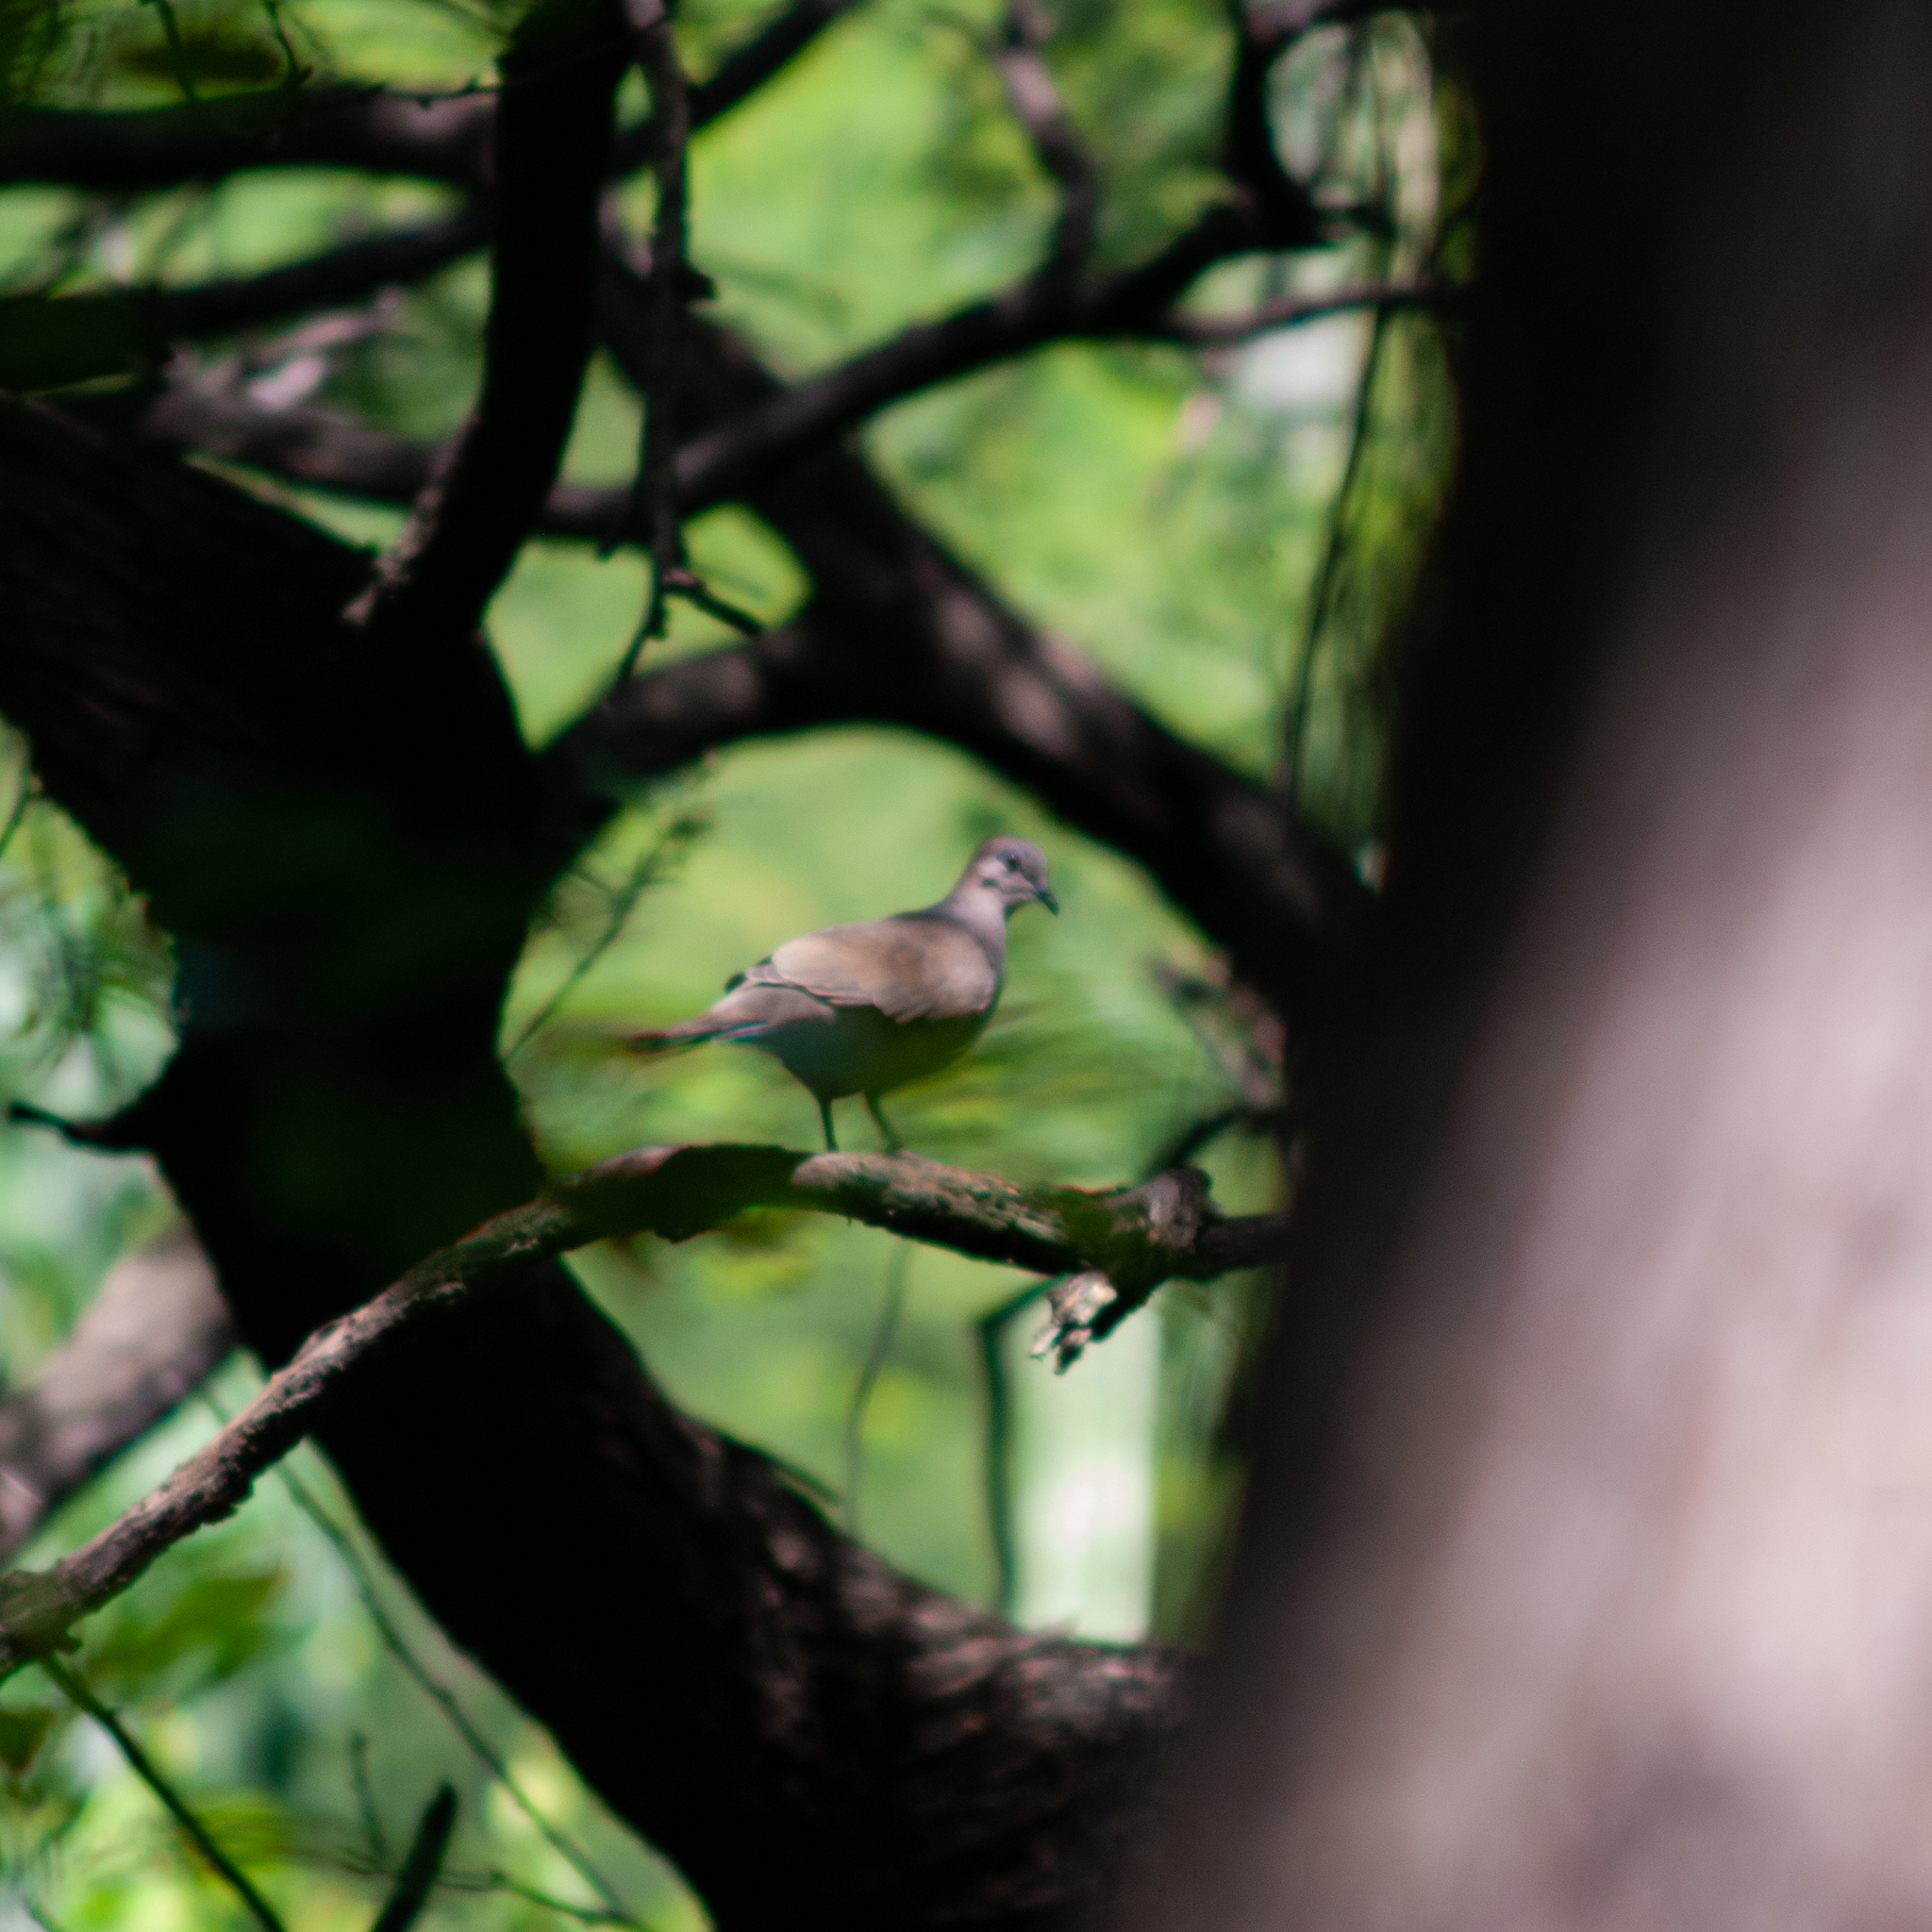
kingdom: Animalia
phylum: Chordata
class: Aves
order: Columbiformes
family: Columbidae
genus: Leptotila
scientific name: Leptotila verreauxi
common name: White-tipped dove
